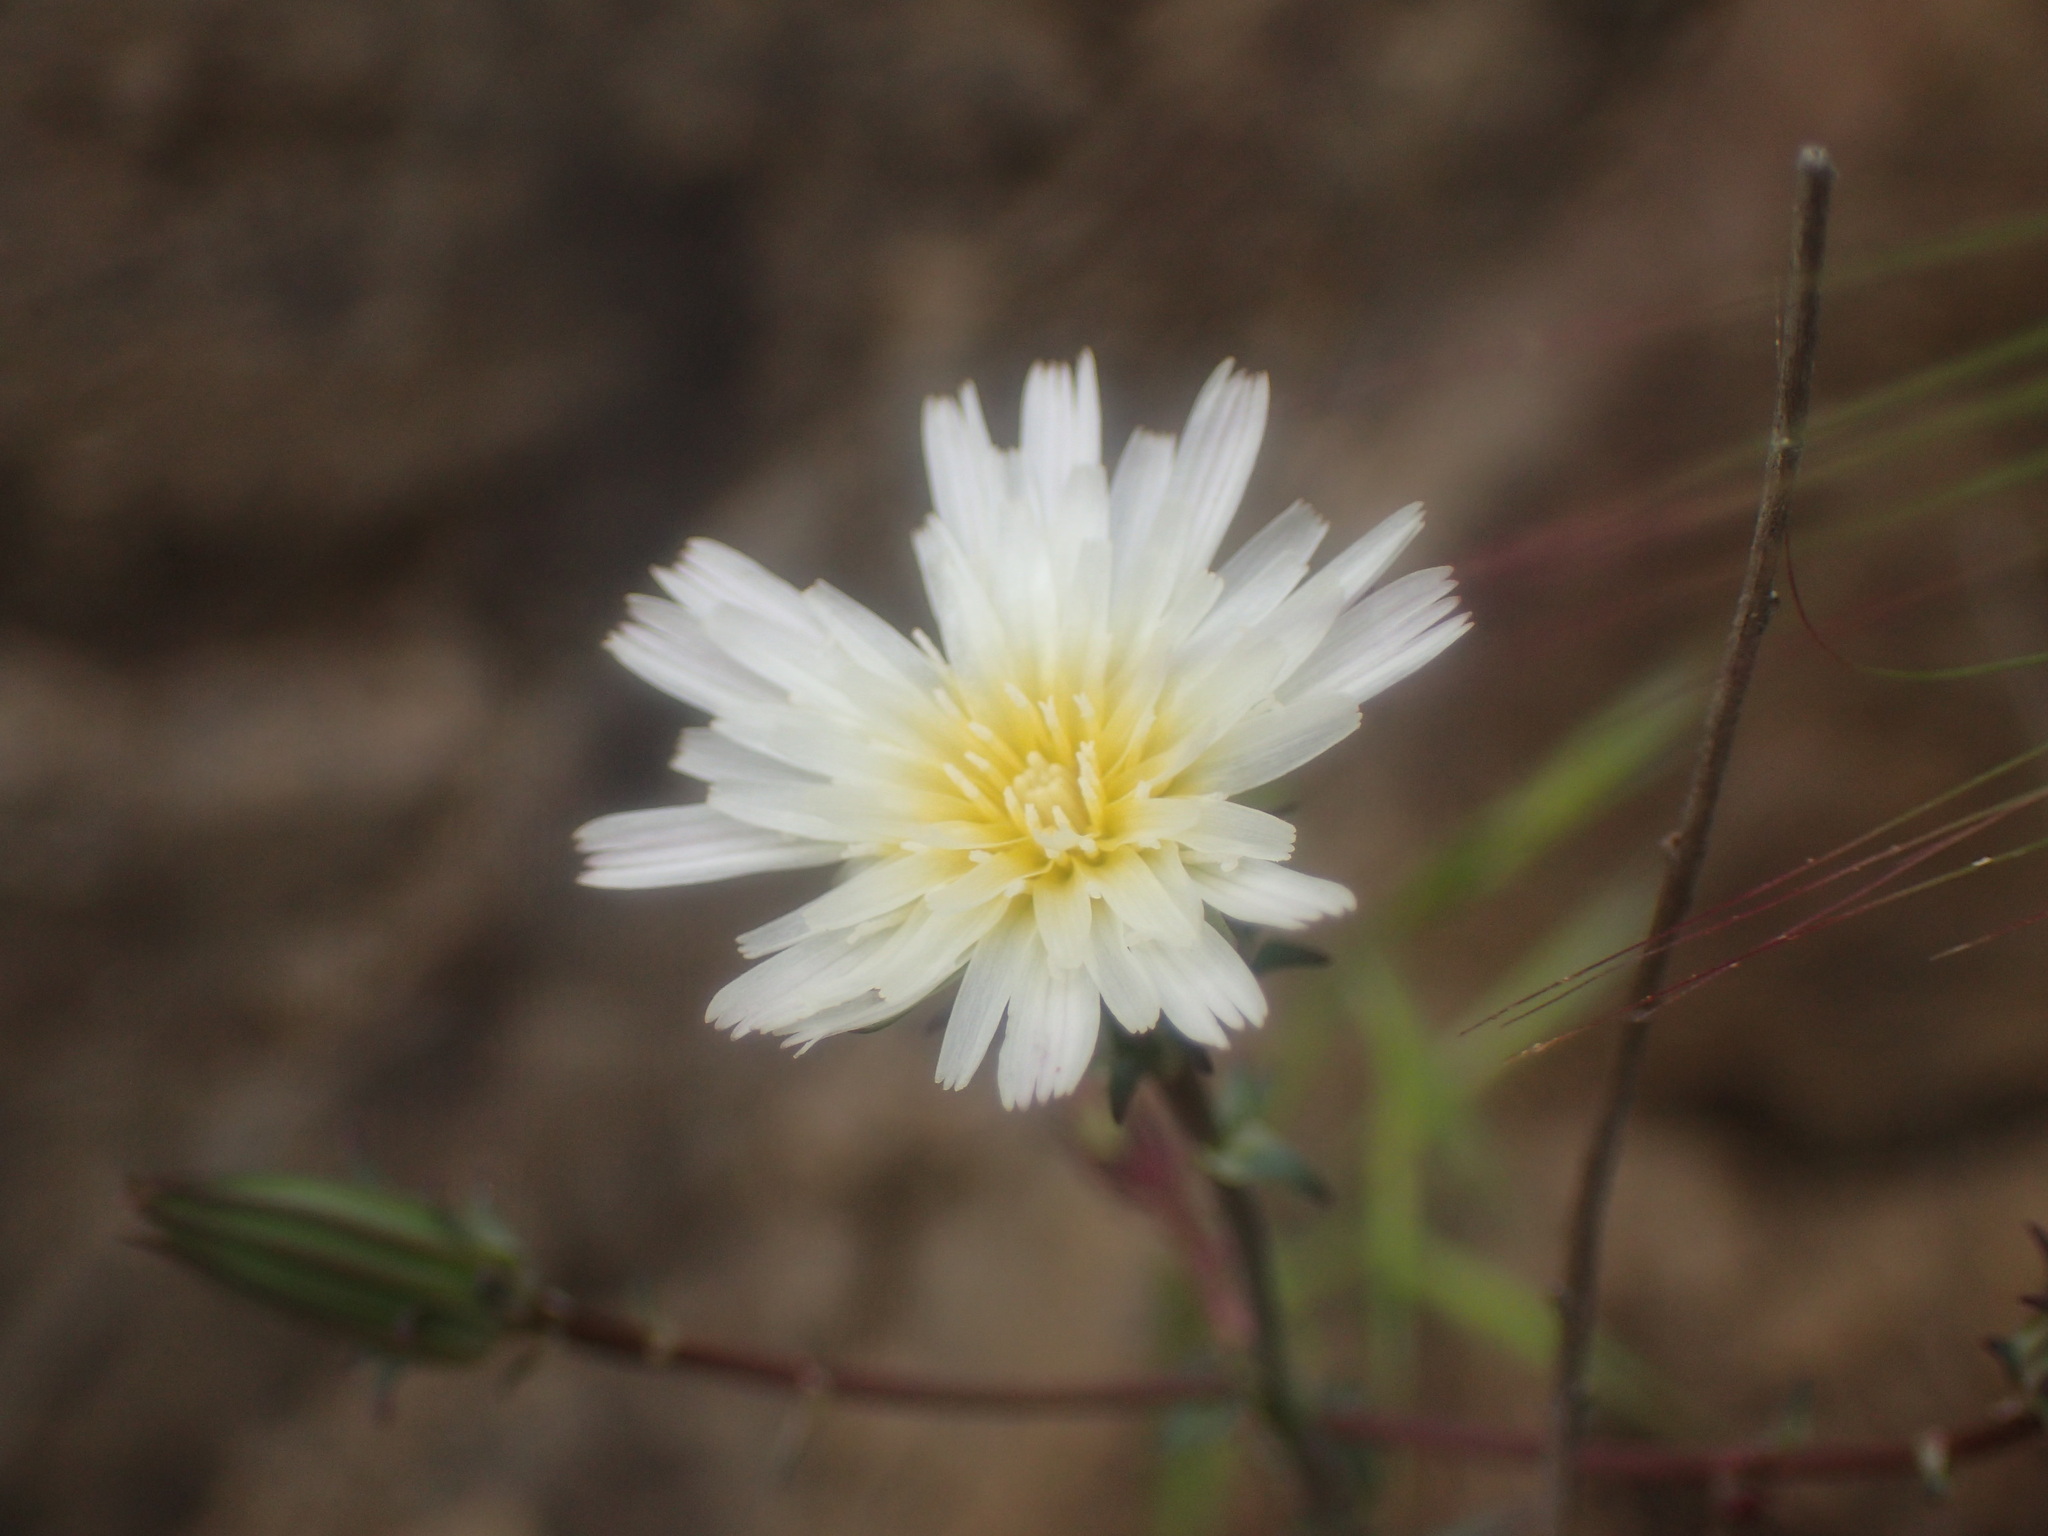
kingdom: Plantae
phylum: Tracheophyta
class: Magnoliopsida
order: Asterales
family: Asteraceae
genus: Rafinesquia
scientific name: Rafinesquia californica
